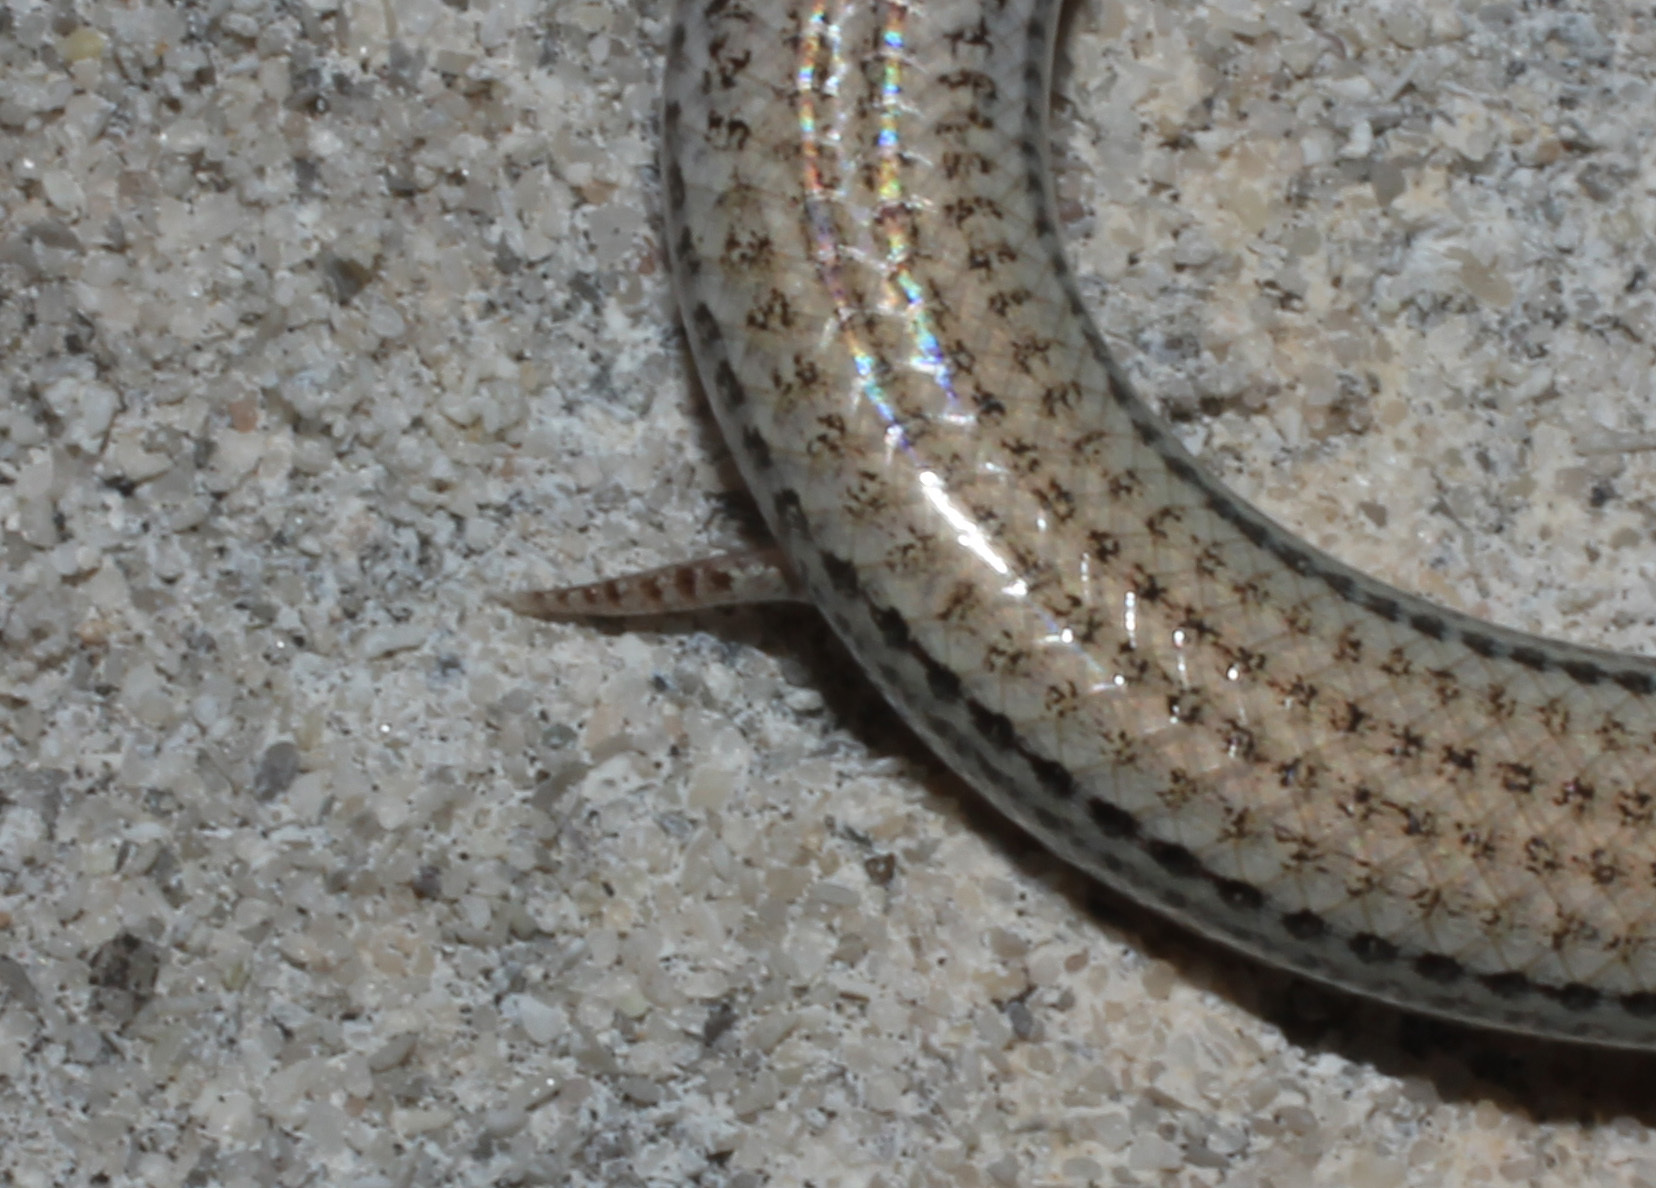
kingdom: Animalia
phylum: Chordata
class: Squamata
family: Scincidae
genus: Scelotes
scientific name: Scelotes gronovii
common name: Gronovi's dwarf burrowing skink
